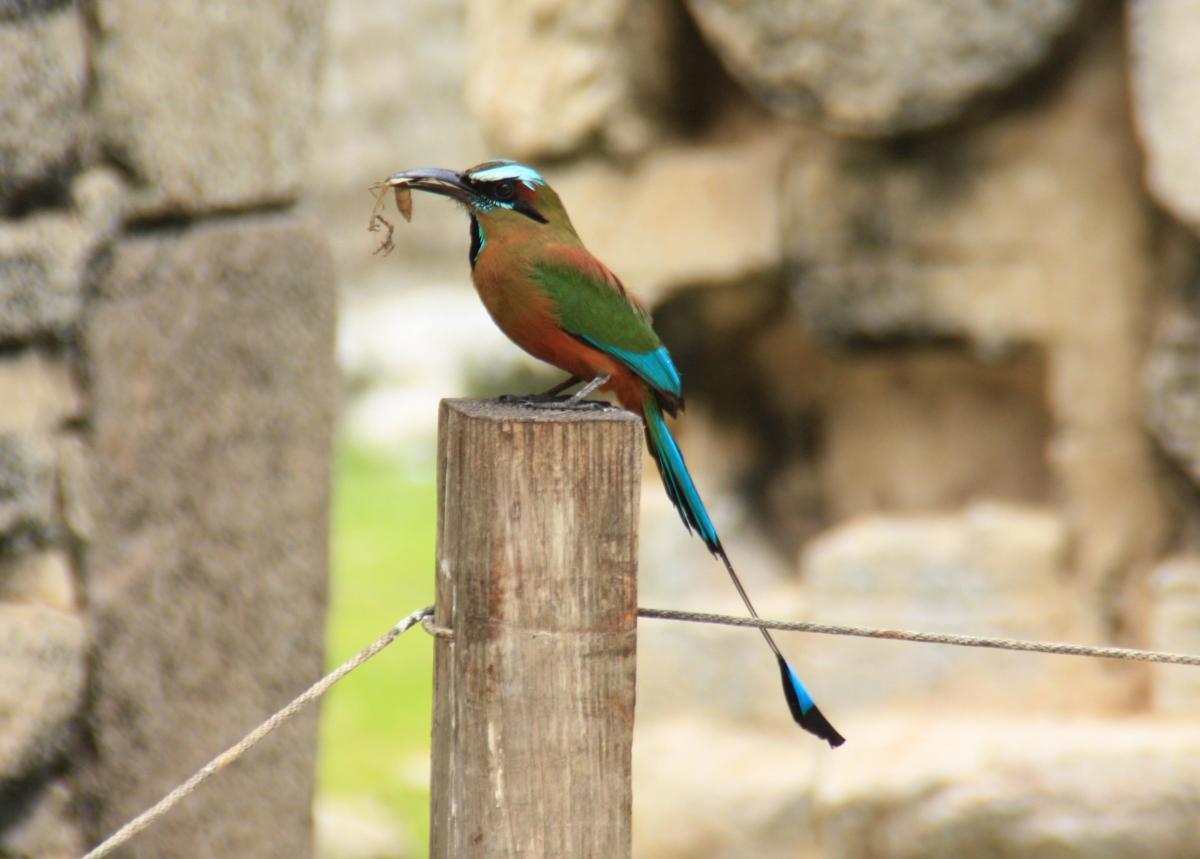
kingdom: Animalia
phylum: Chordata
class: Aves
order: Coraciiformes
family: Momotidae
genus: Eumomota
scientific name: Eumomota superciliosa
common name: Turquoise-browed motmot
